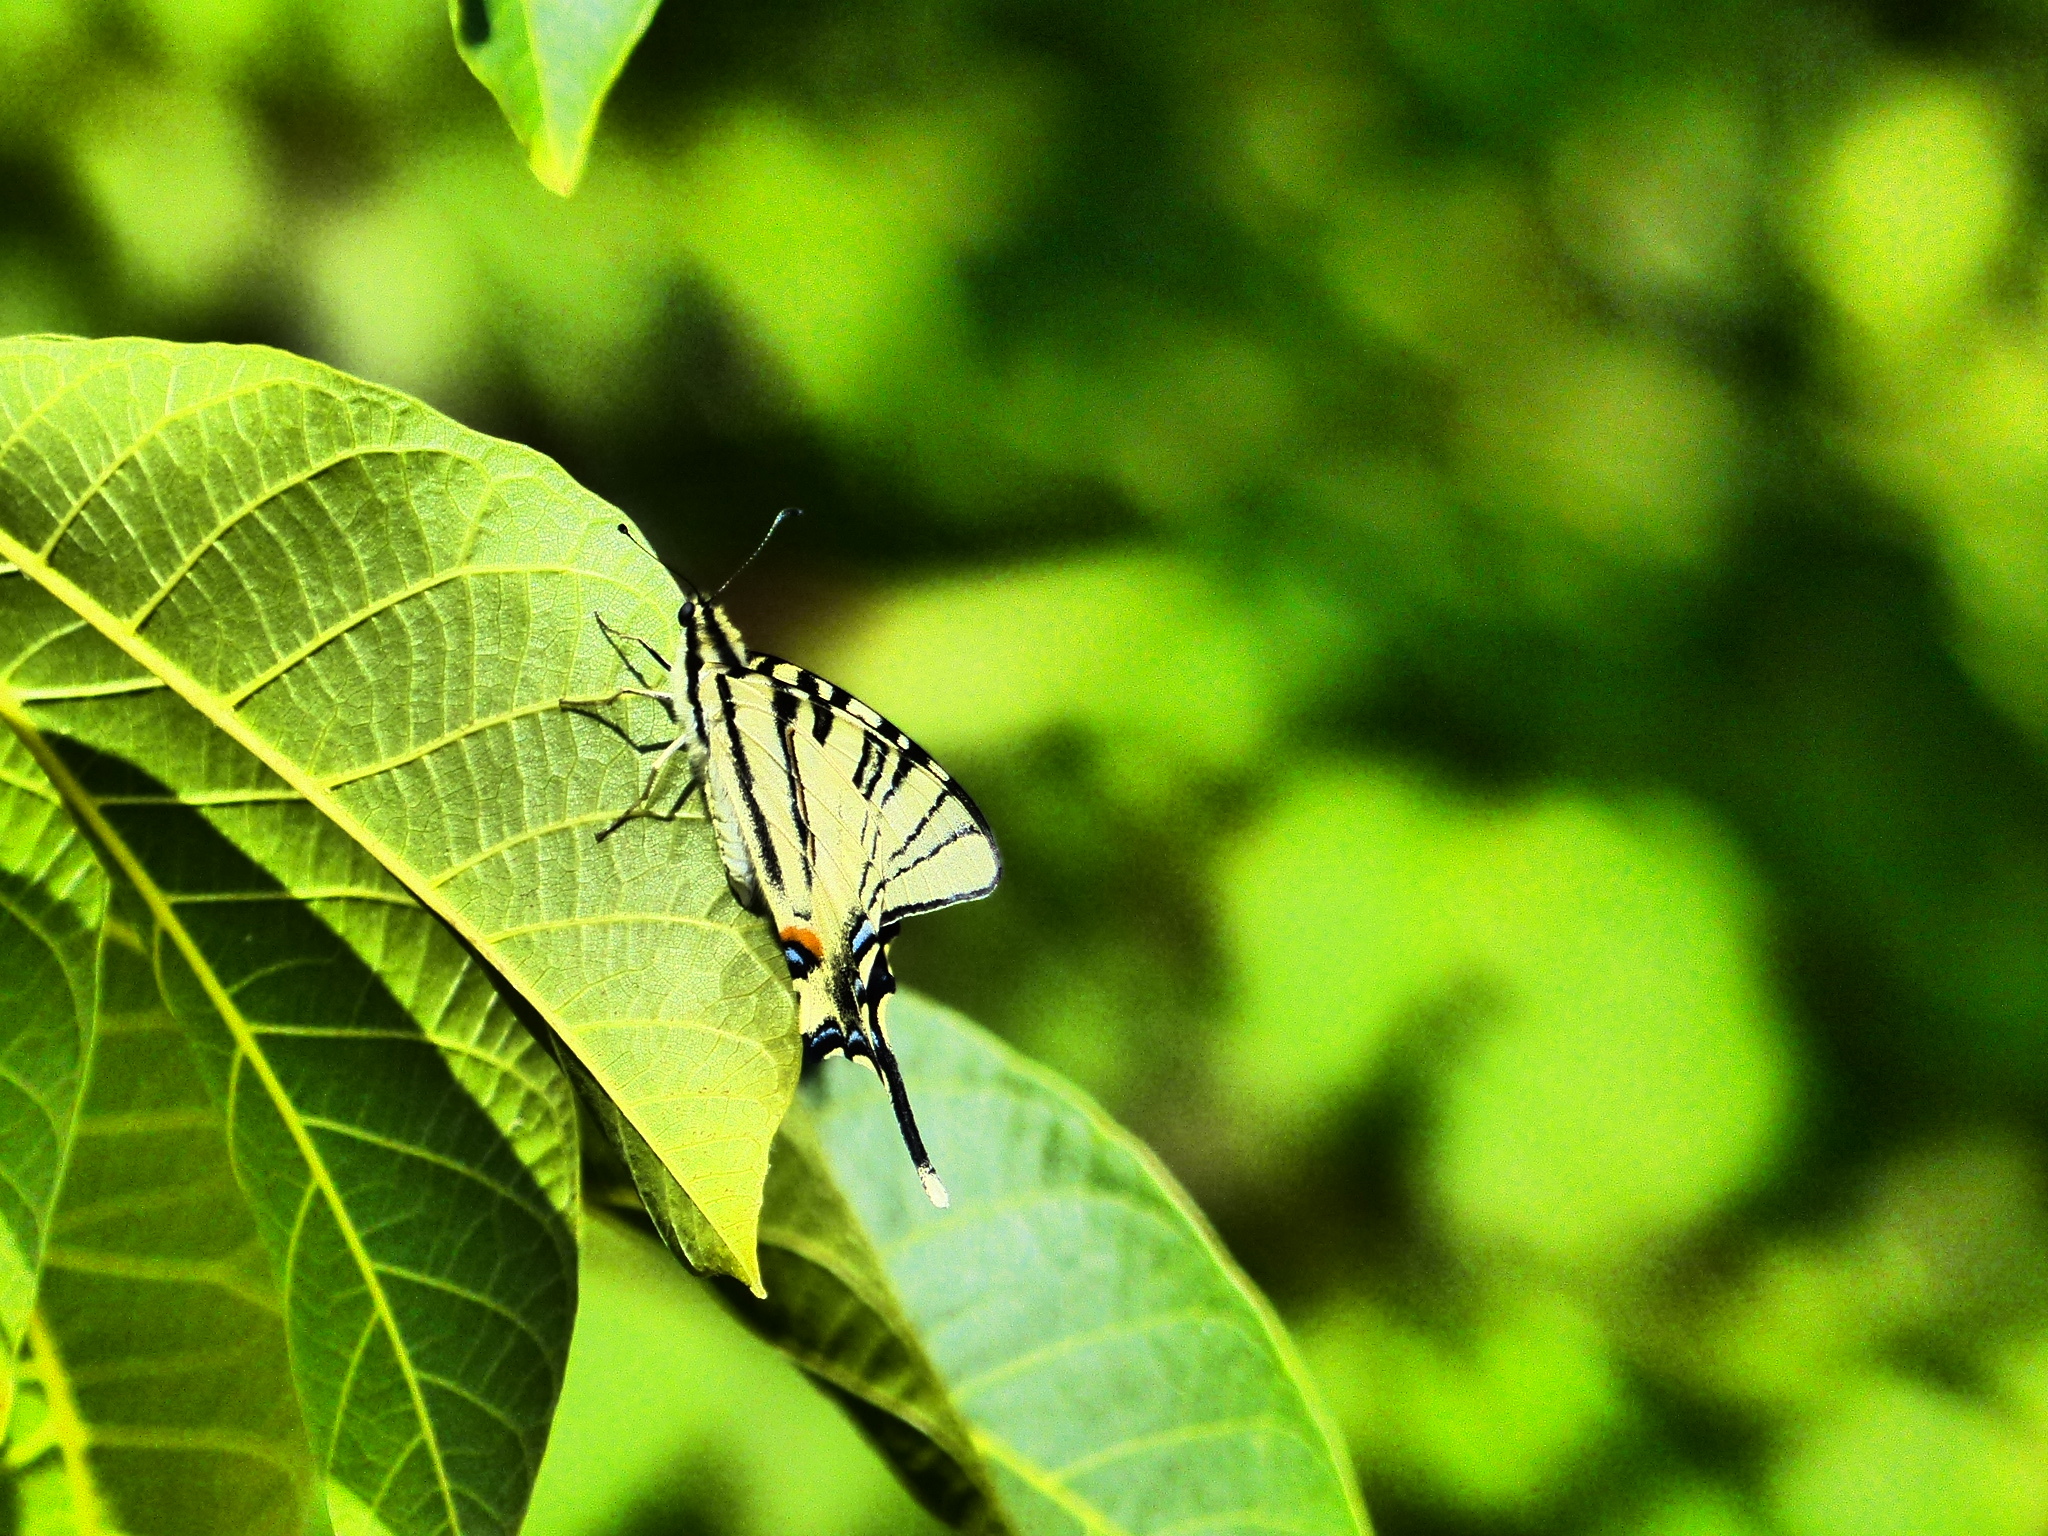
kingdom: Animalia
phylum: Arthropoda
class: Insecta
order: Lepidoptera
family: Papilionidae
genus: Iphiclides
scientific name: Iphiclides podalirius
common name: Scarce swallowtail
